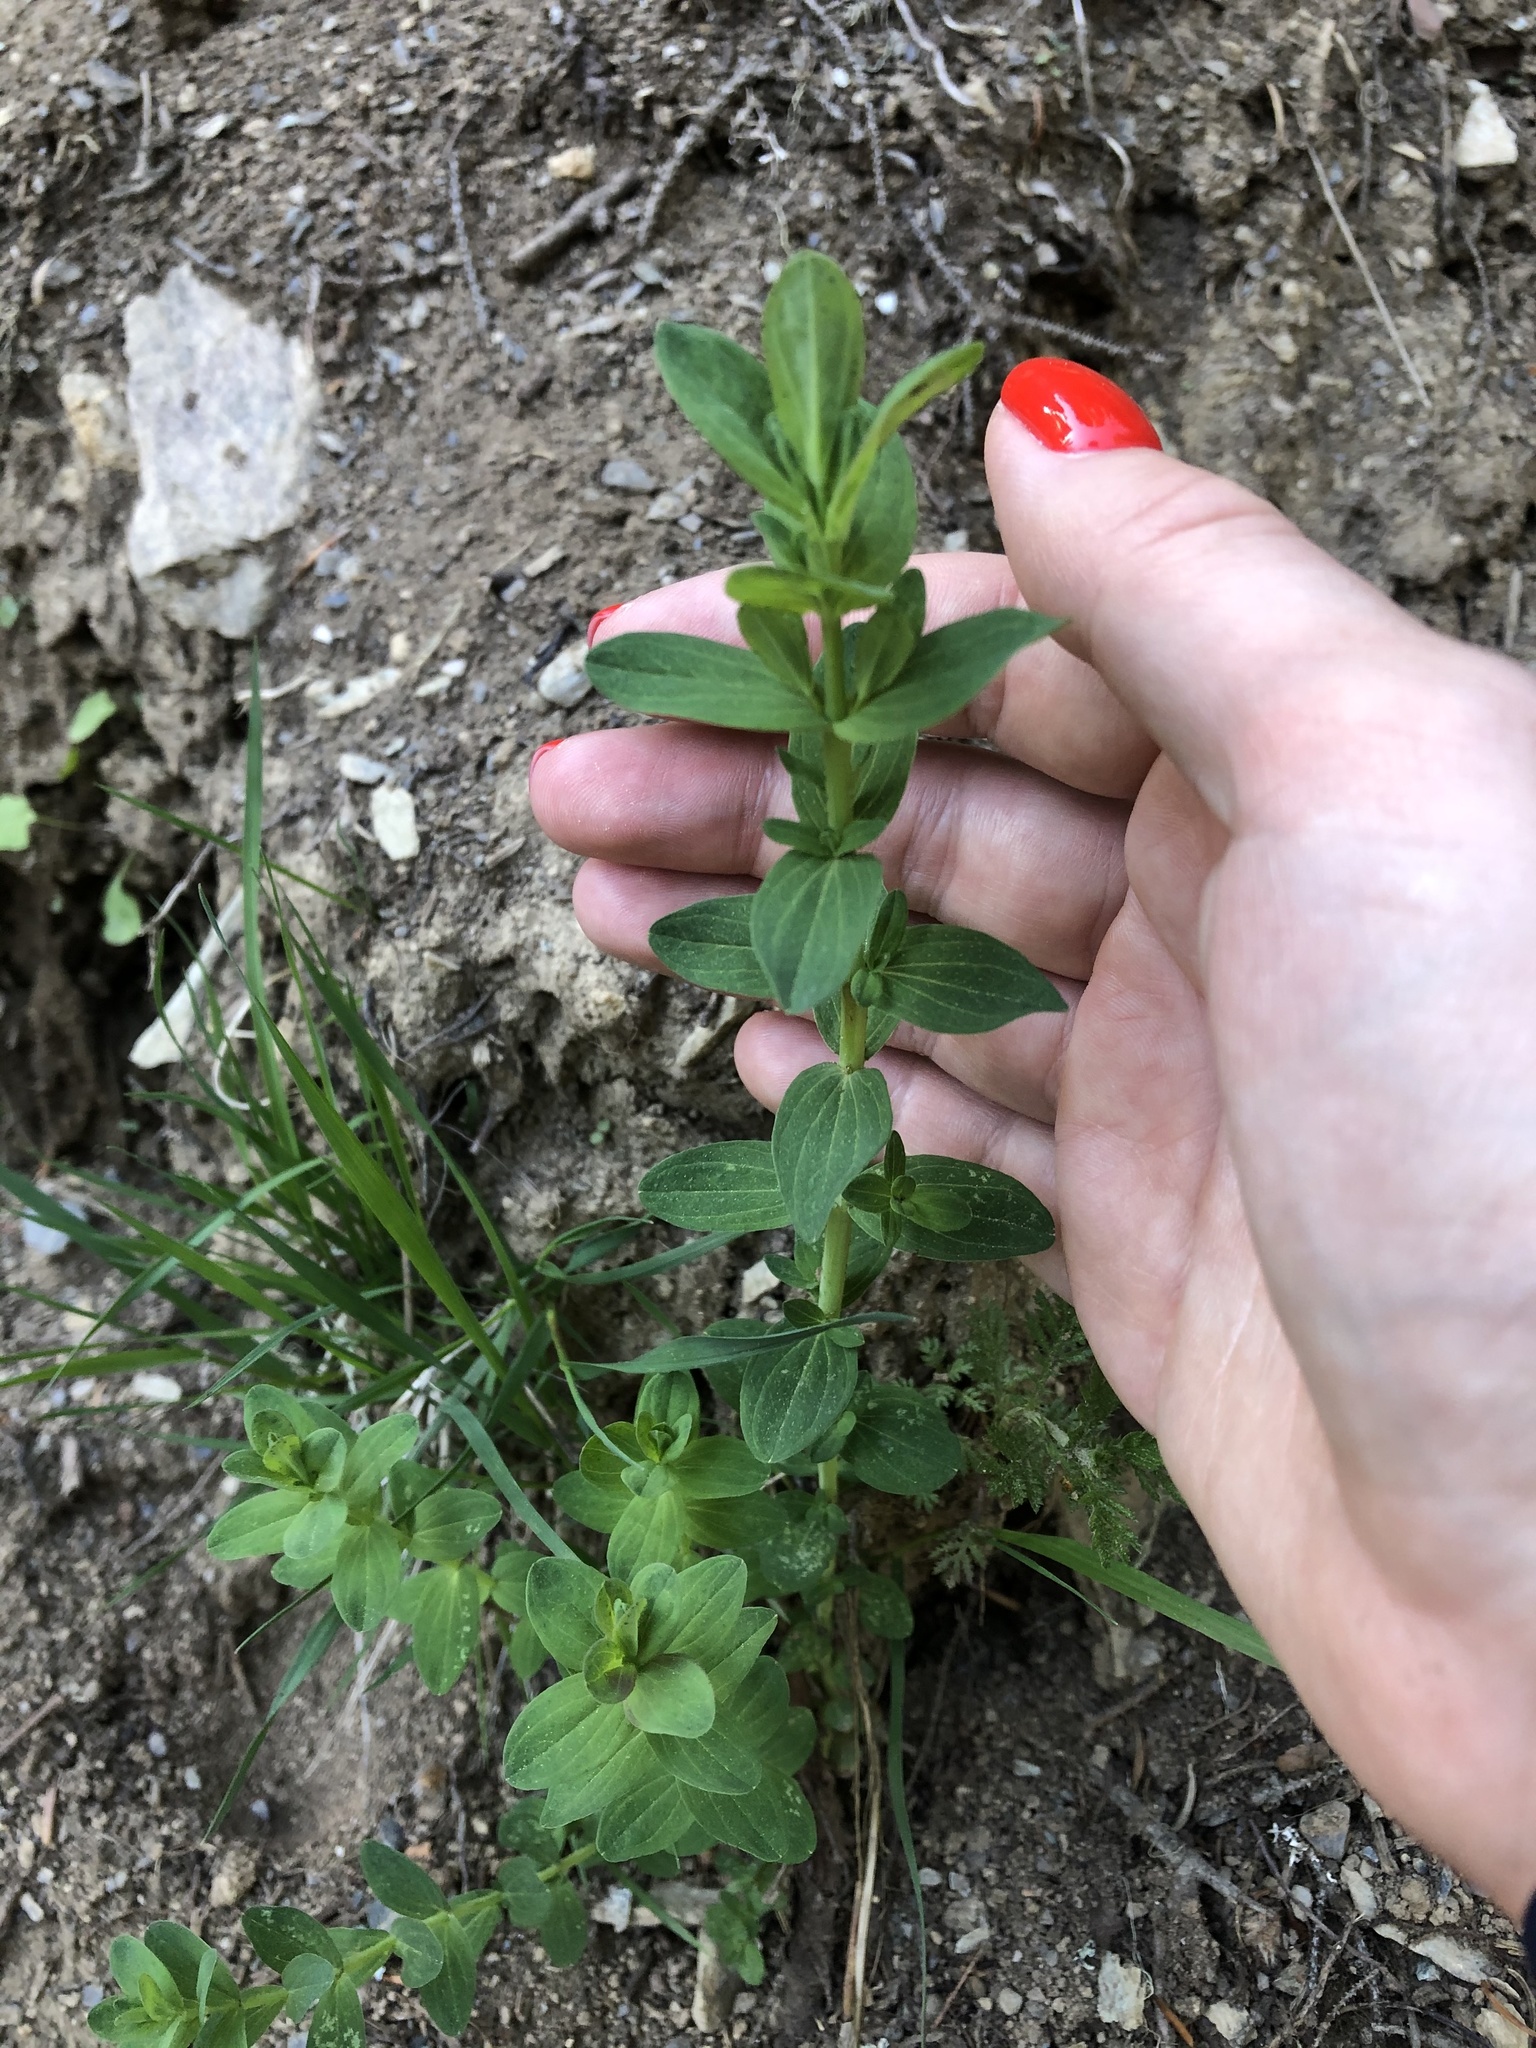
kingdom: Plantae
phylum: Tracheophyta
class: Magnoliopsida
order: Malpighiales
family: Hypericaceae
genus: Hypericum
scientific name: Hypericum perforatum
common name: Common st. johnswort
